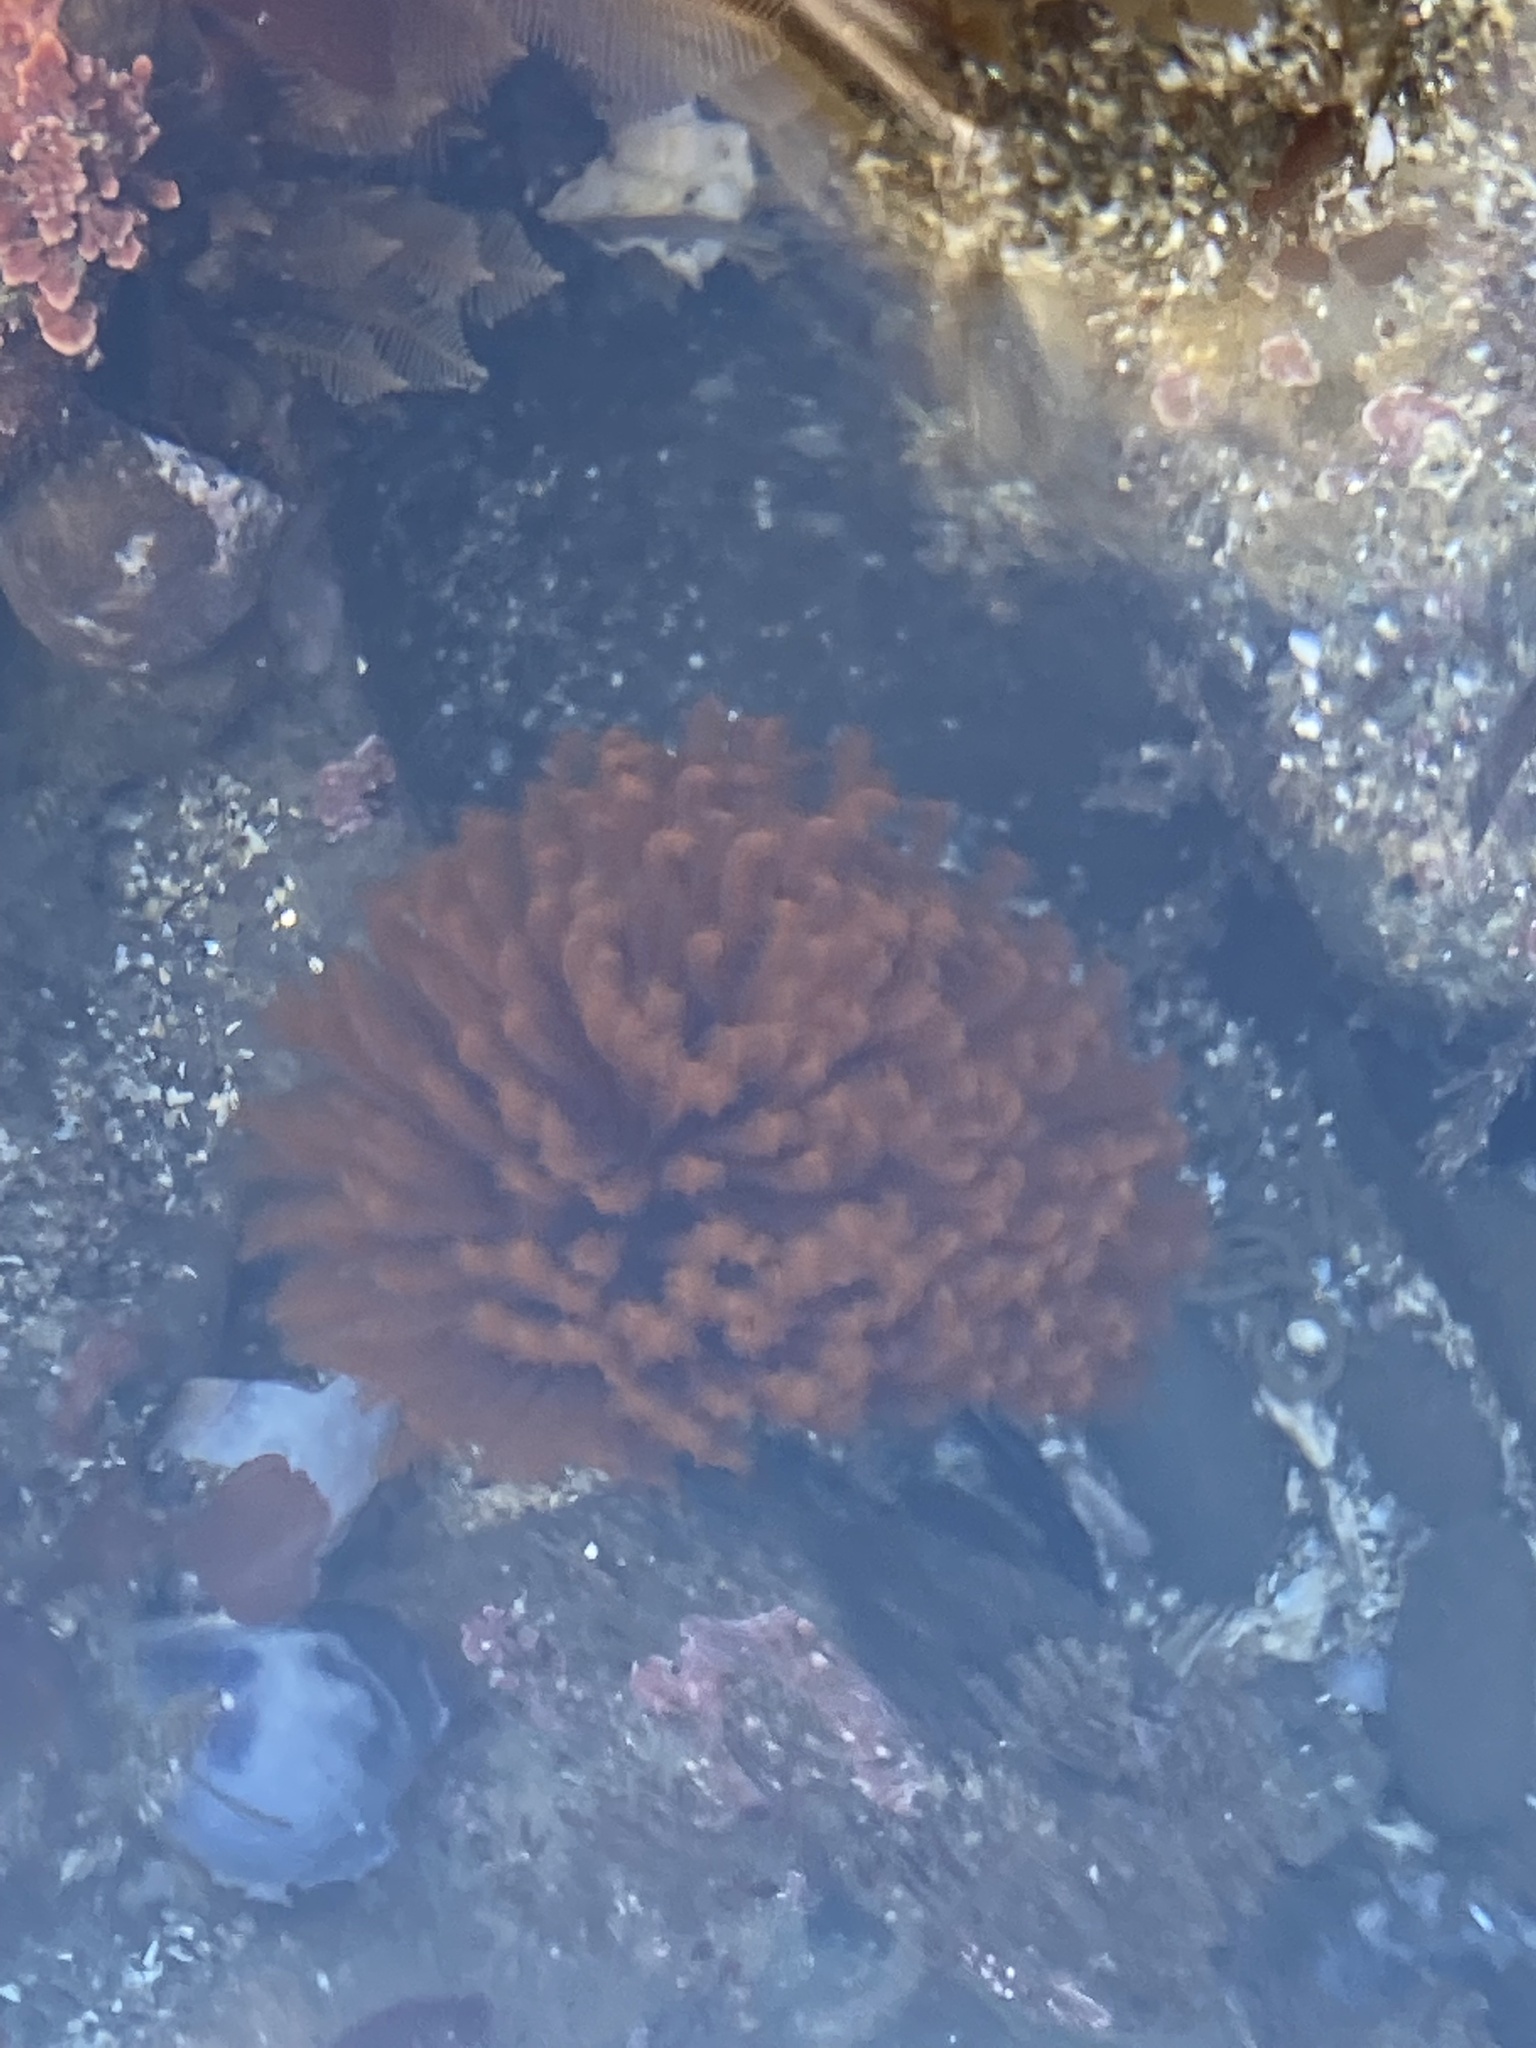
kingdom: Animalia
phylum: Annelida
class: Polychaeta
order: Sabellida
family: Sabellidae
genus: Eudistylia
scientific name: Eudistylia polymorpha
